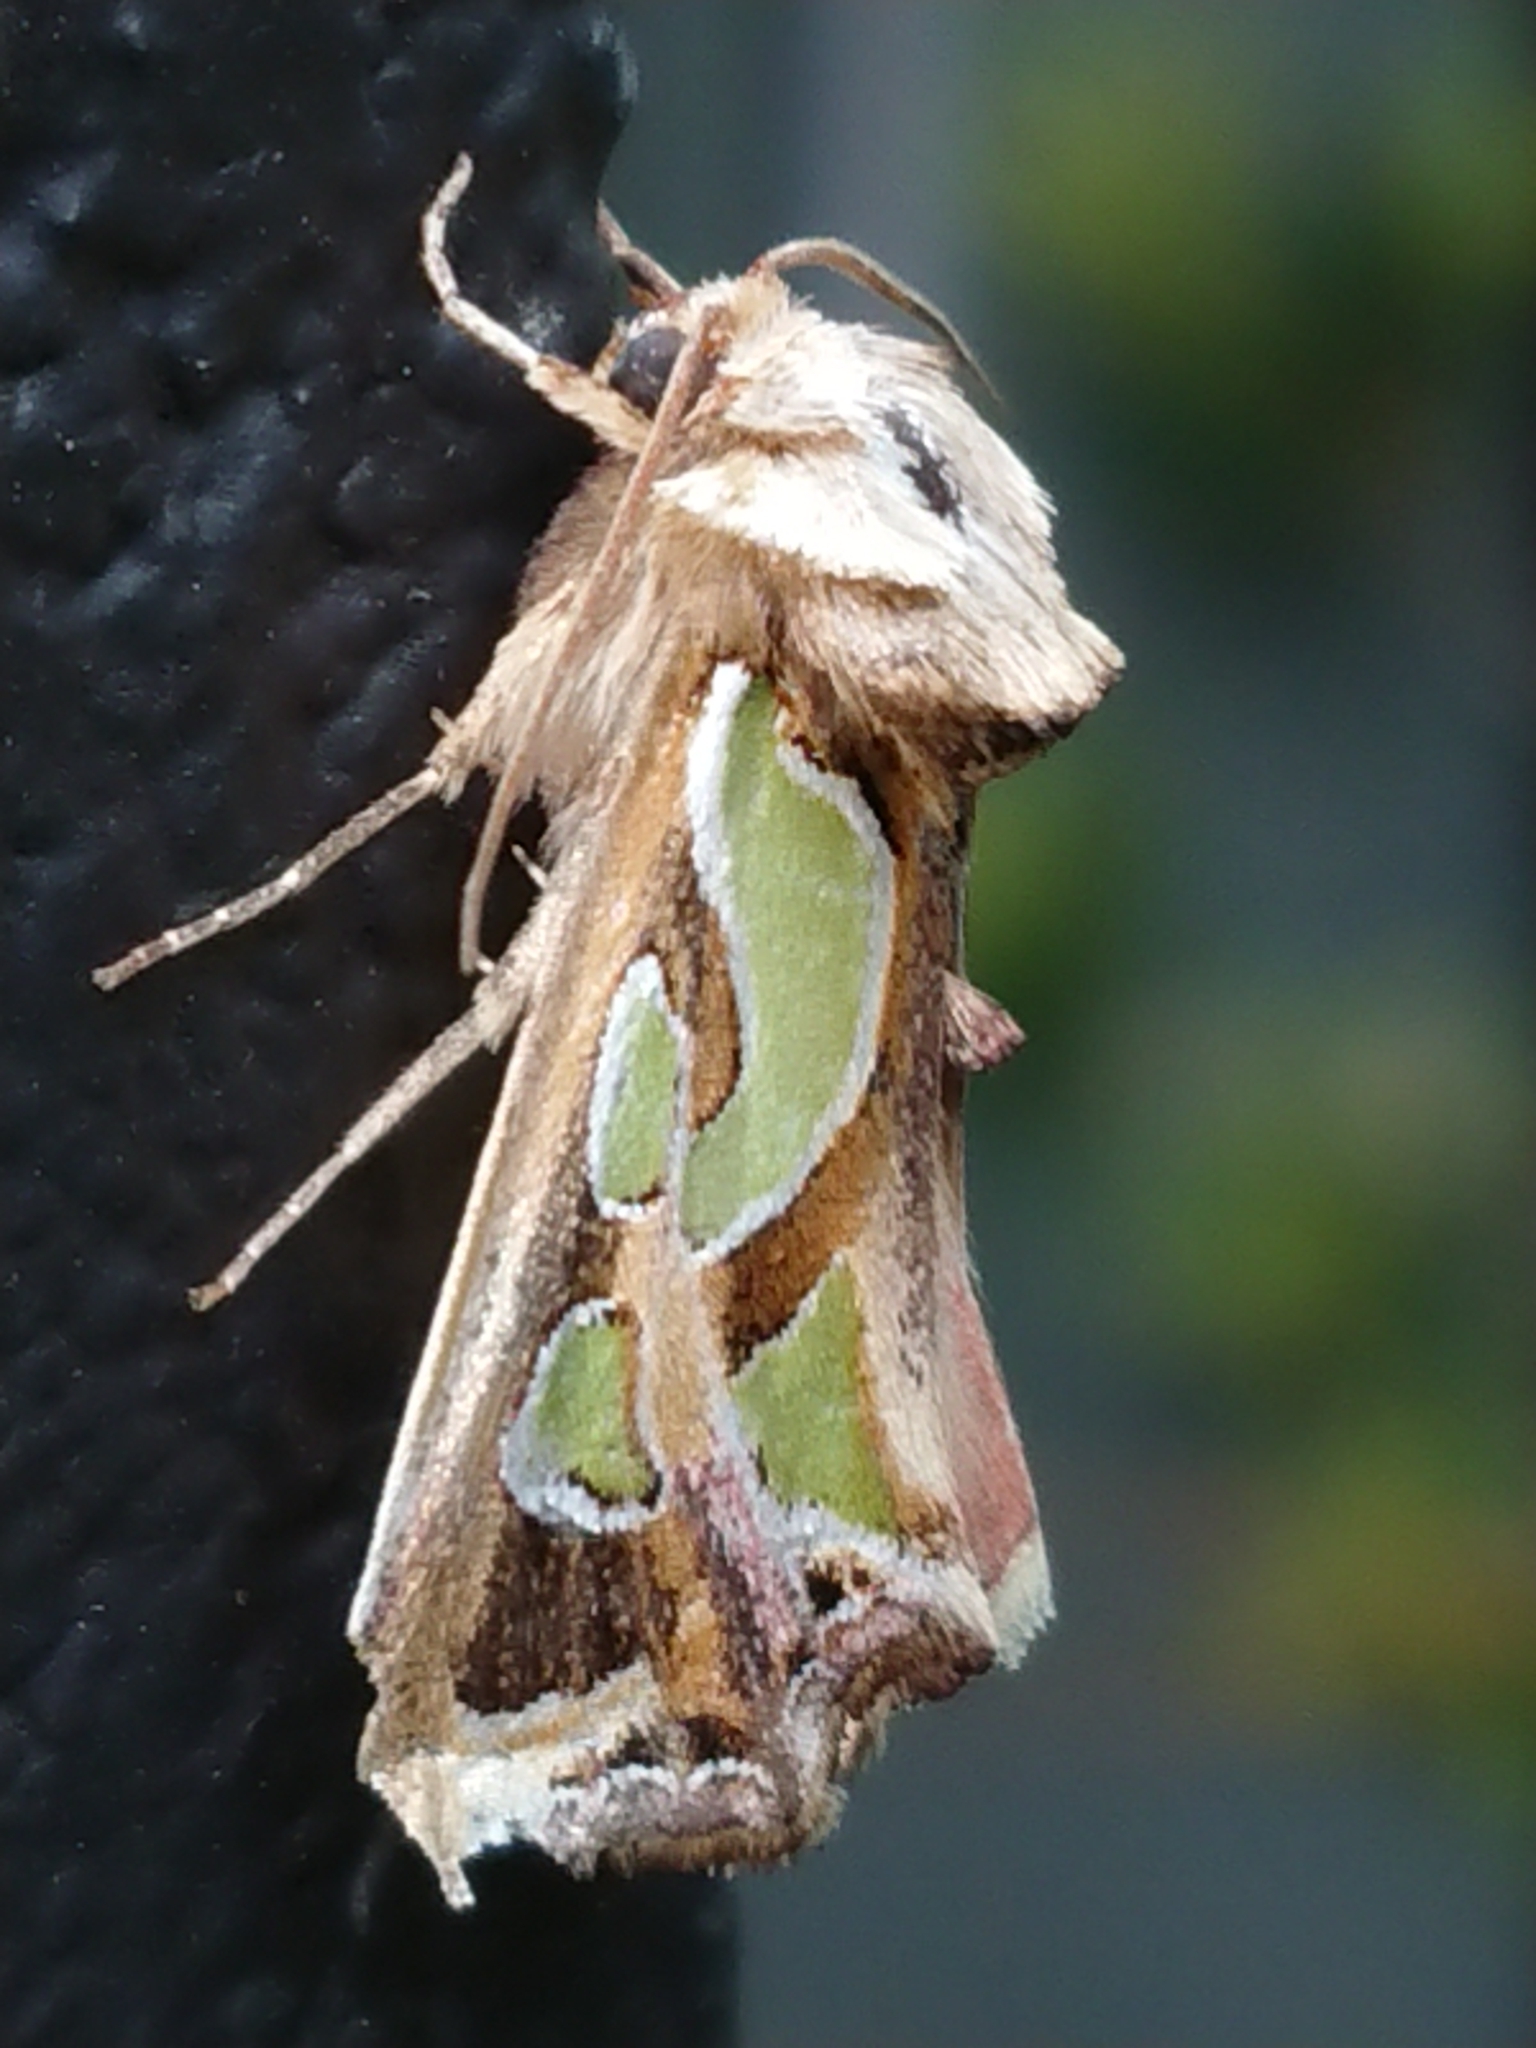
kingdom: Animalia
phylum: Arthropoda
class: Insecta
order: Lepidoptera
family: Noctuidae
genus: Cosmodes
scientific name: Cosmodes elegans
